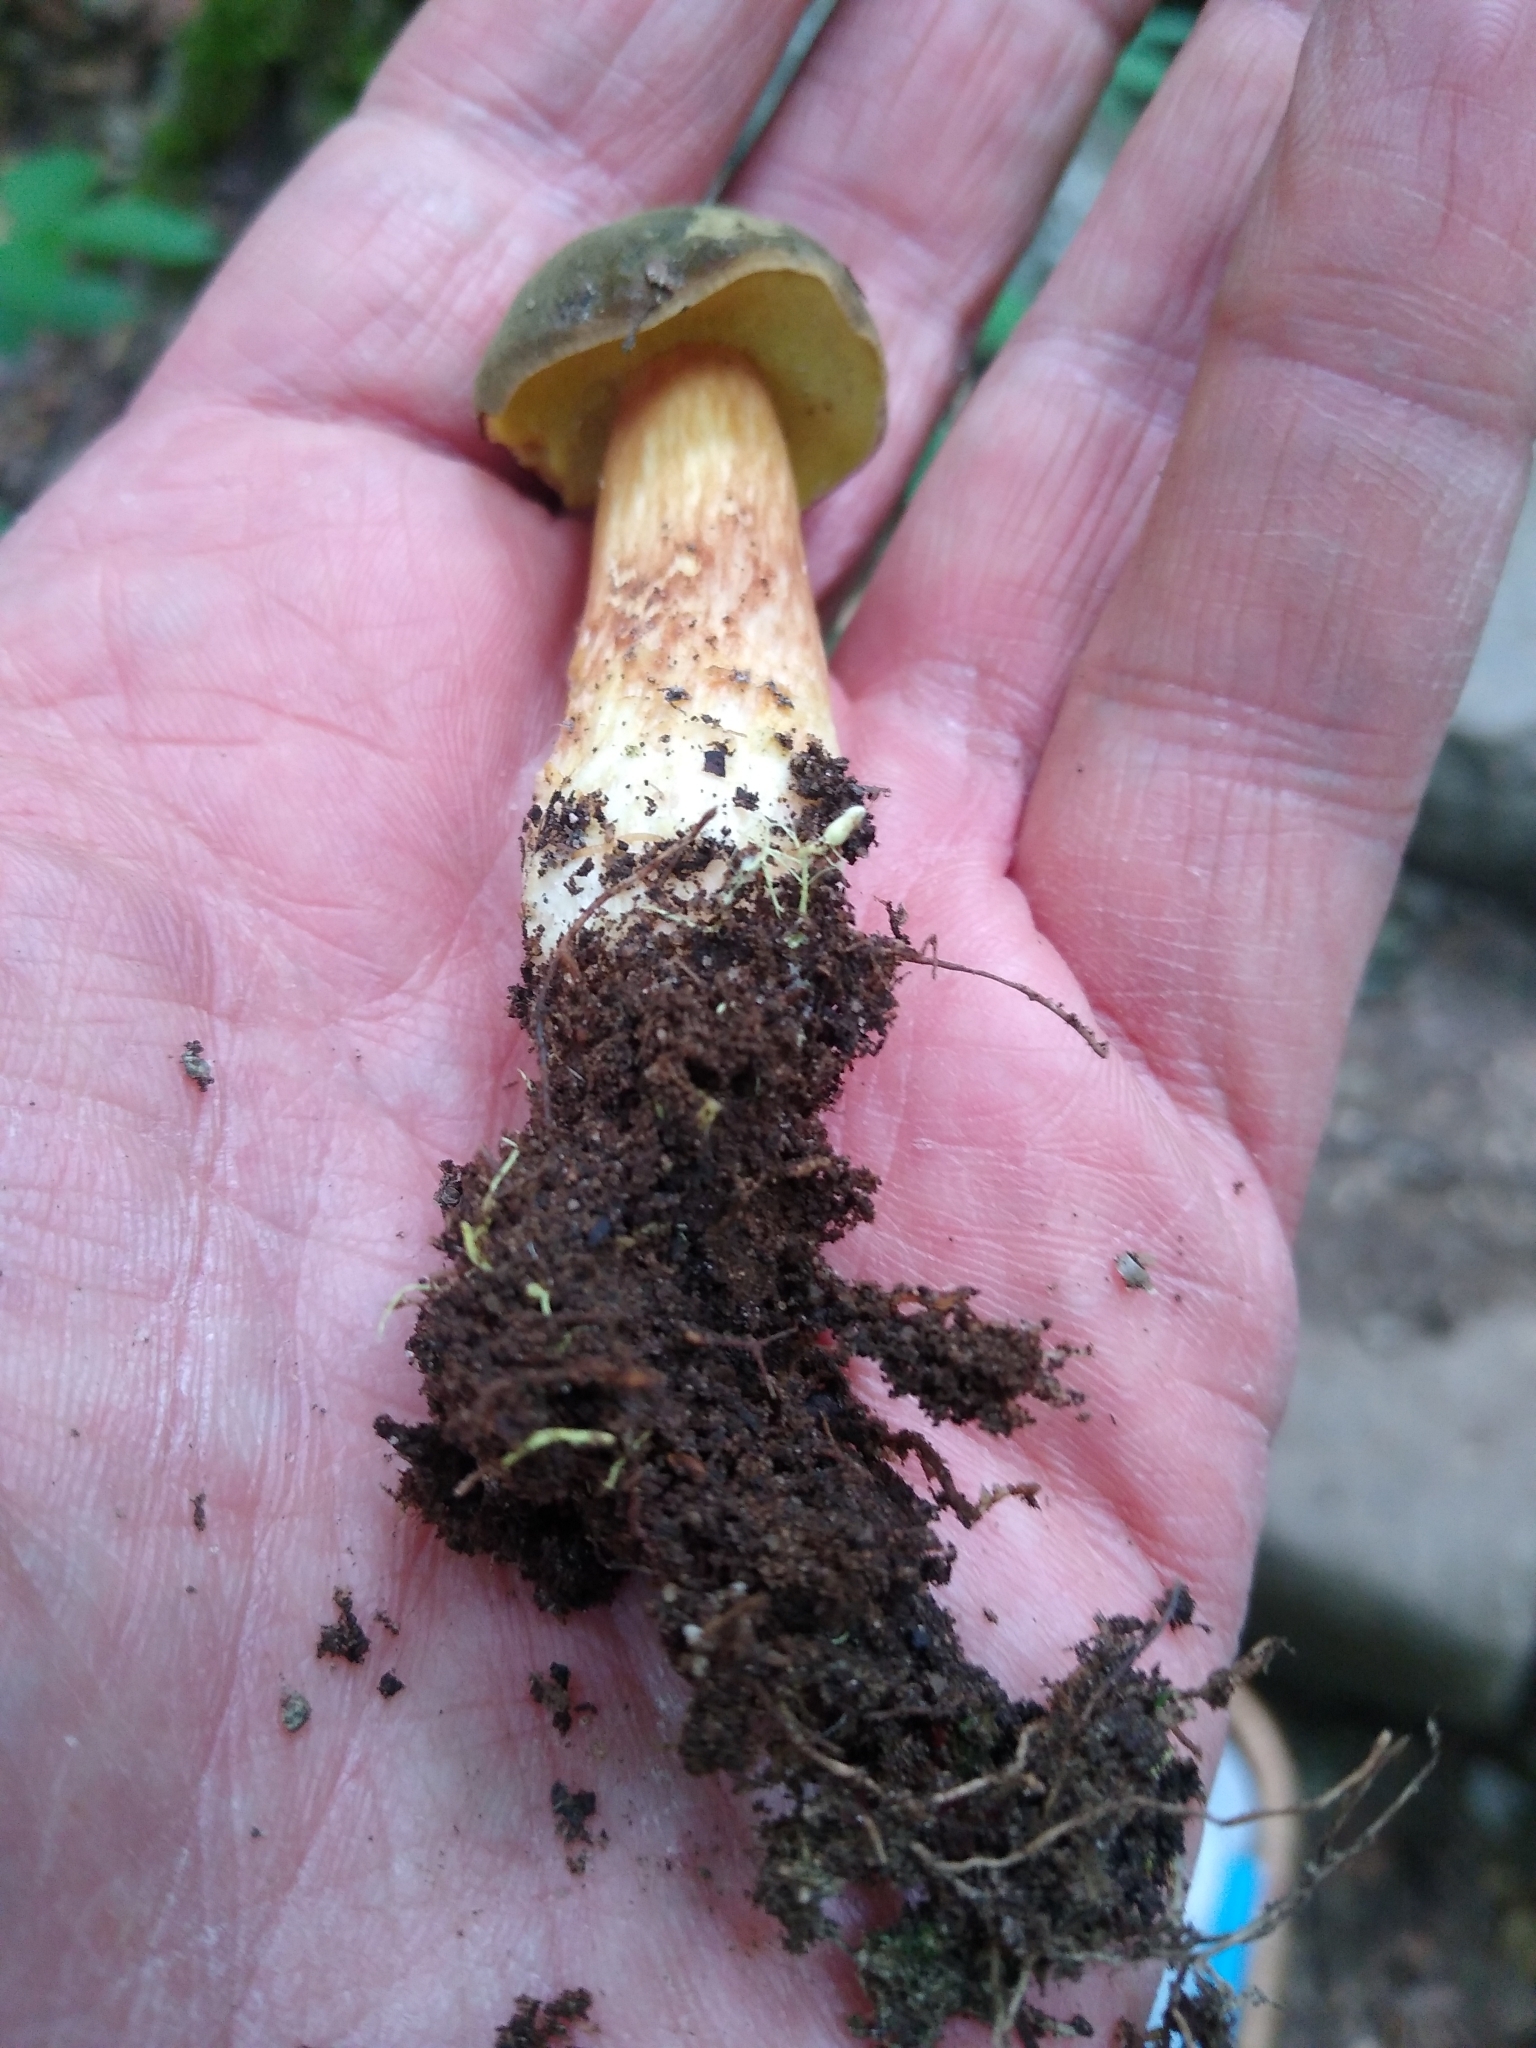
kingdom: Fungi
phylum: Basidiomycota
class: Agaricomycetes
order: Boletales
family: Boletaceae
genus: Xerocomus
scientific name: Xerocomus subtomentosus
